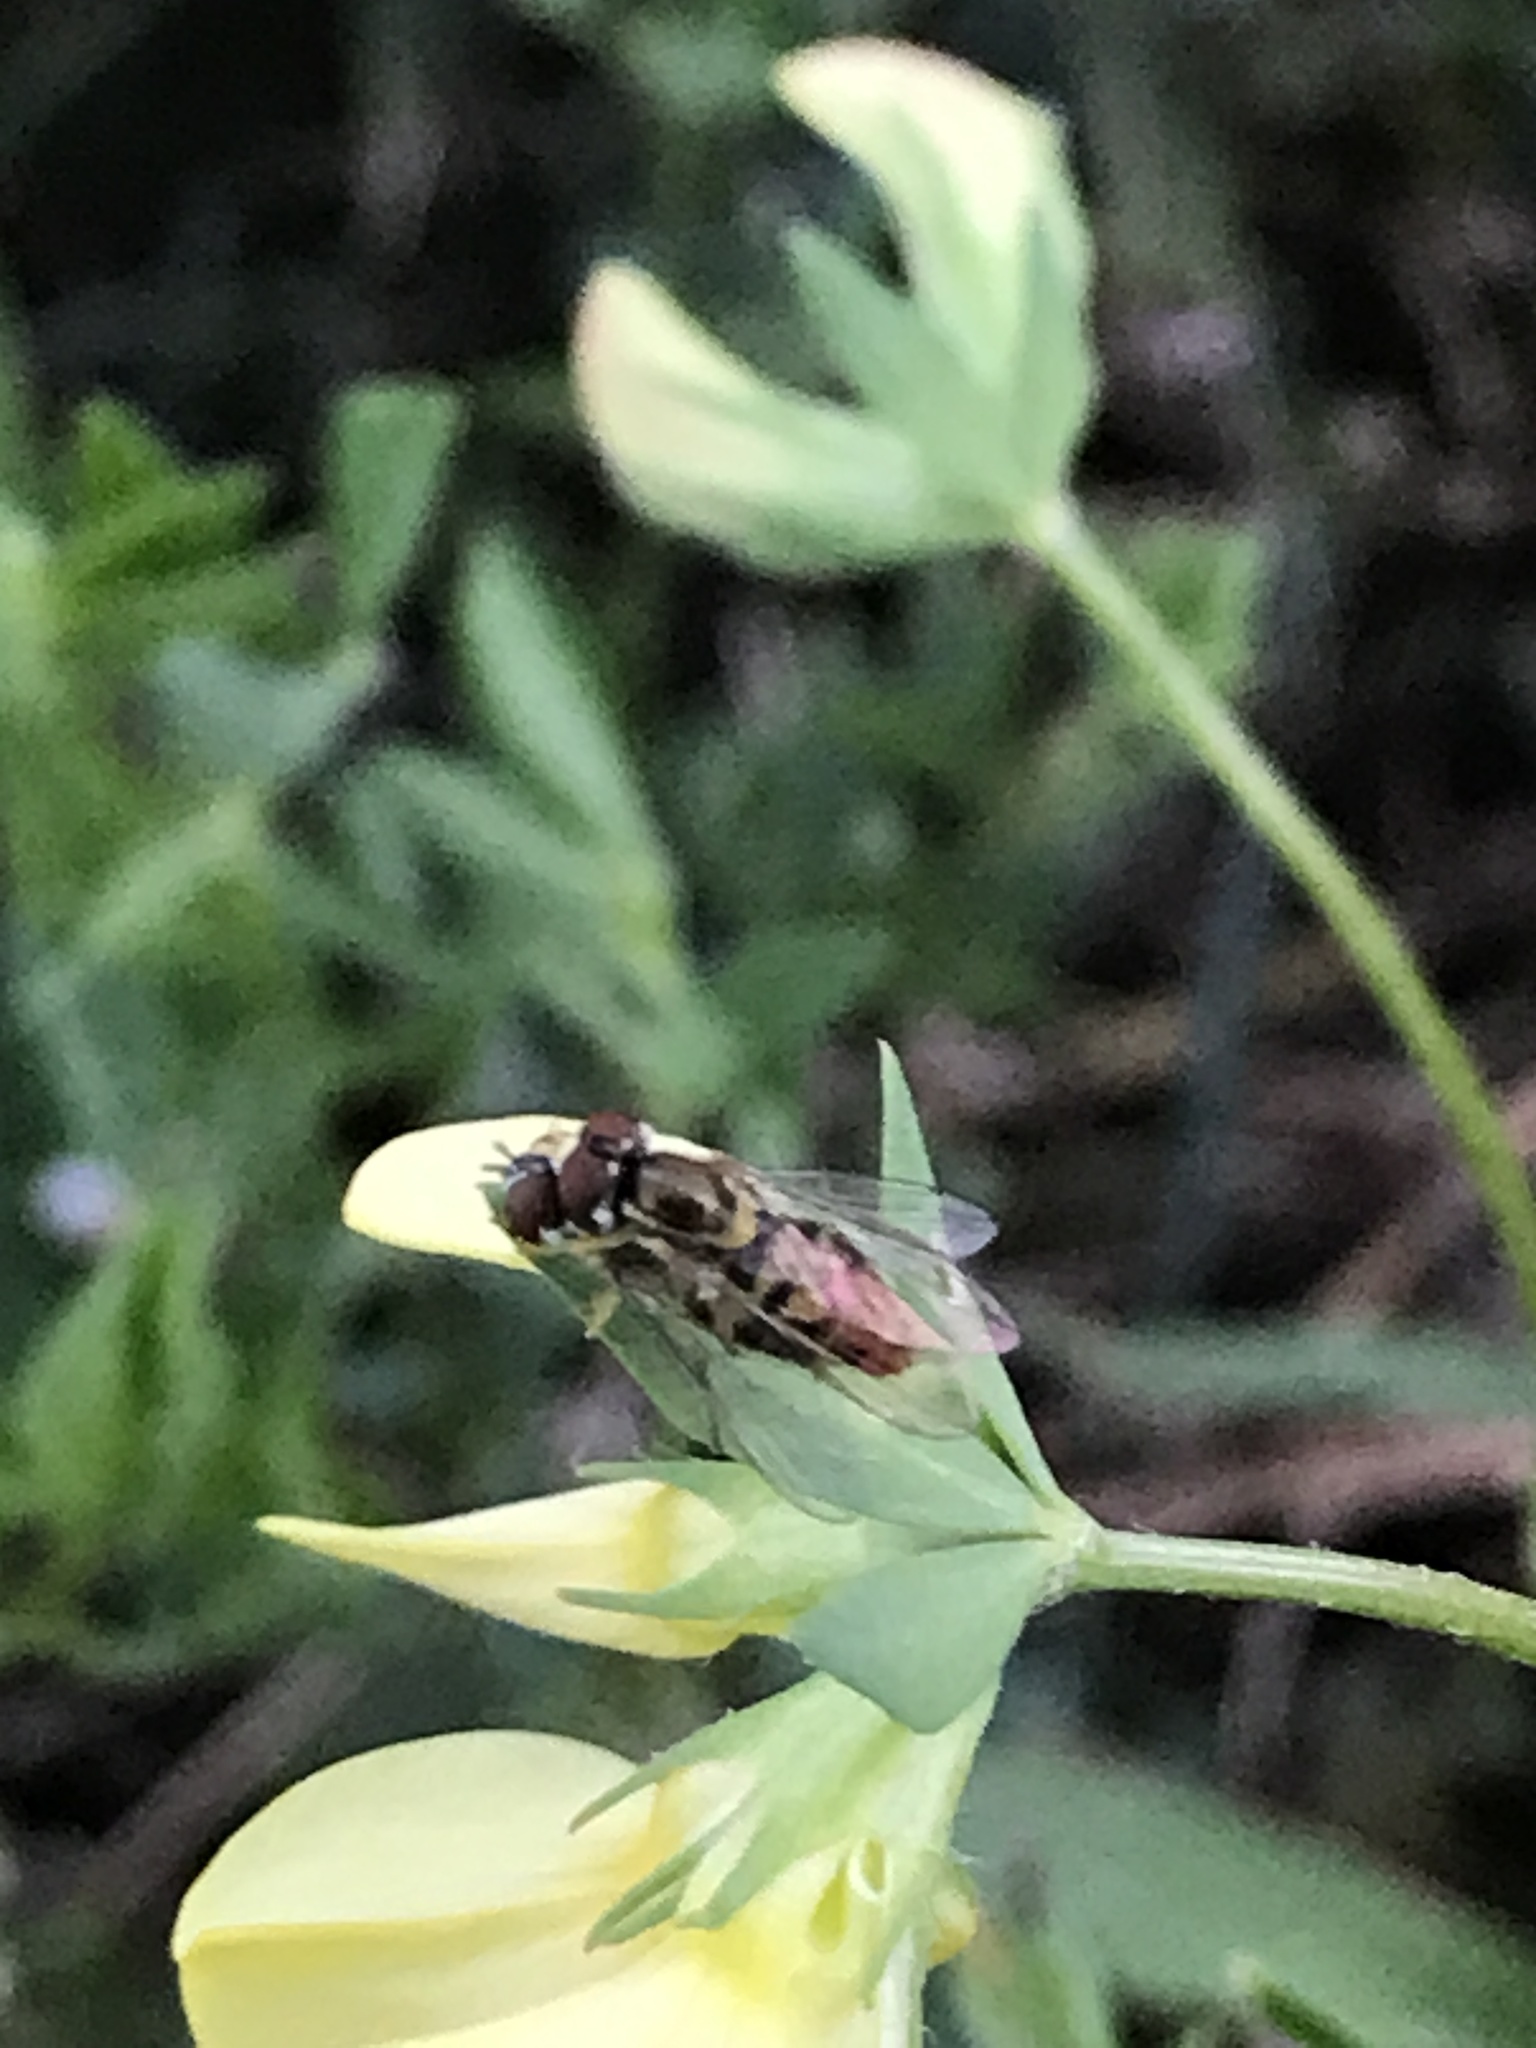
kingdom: Animalia
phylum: Arthropoda
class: Insecta
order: Diptera
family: Syrphidae
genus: Toxomerus
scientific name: Toxomerus marginatus
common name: Syrphid fly
